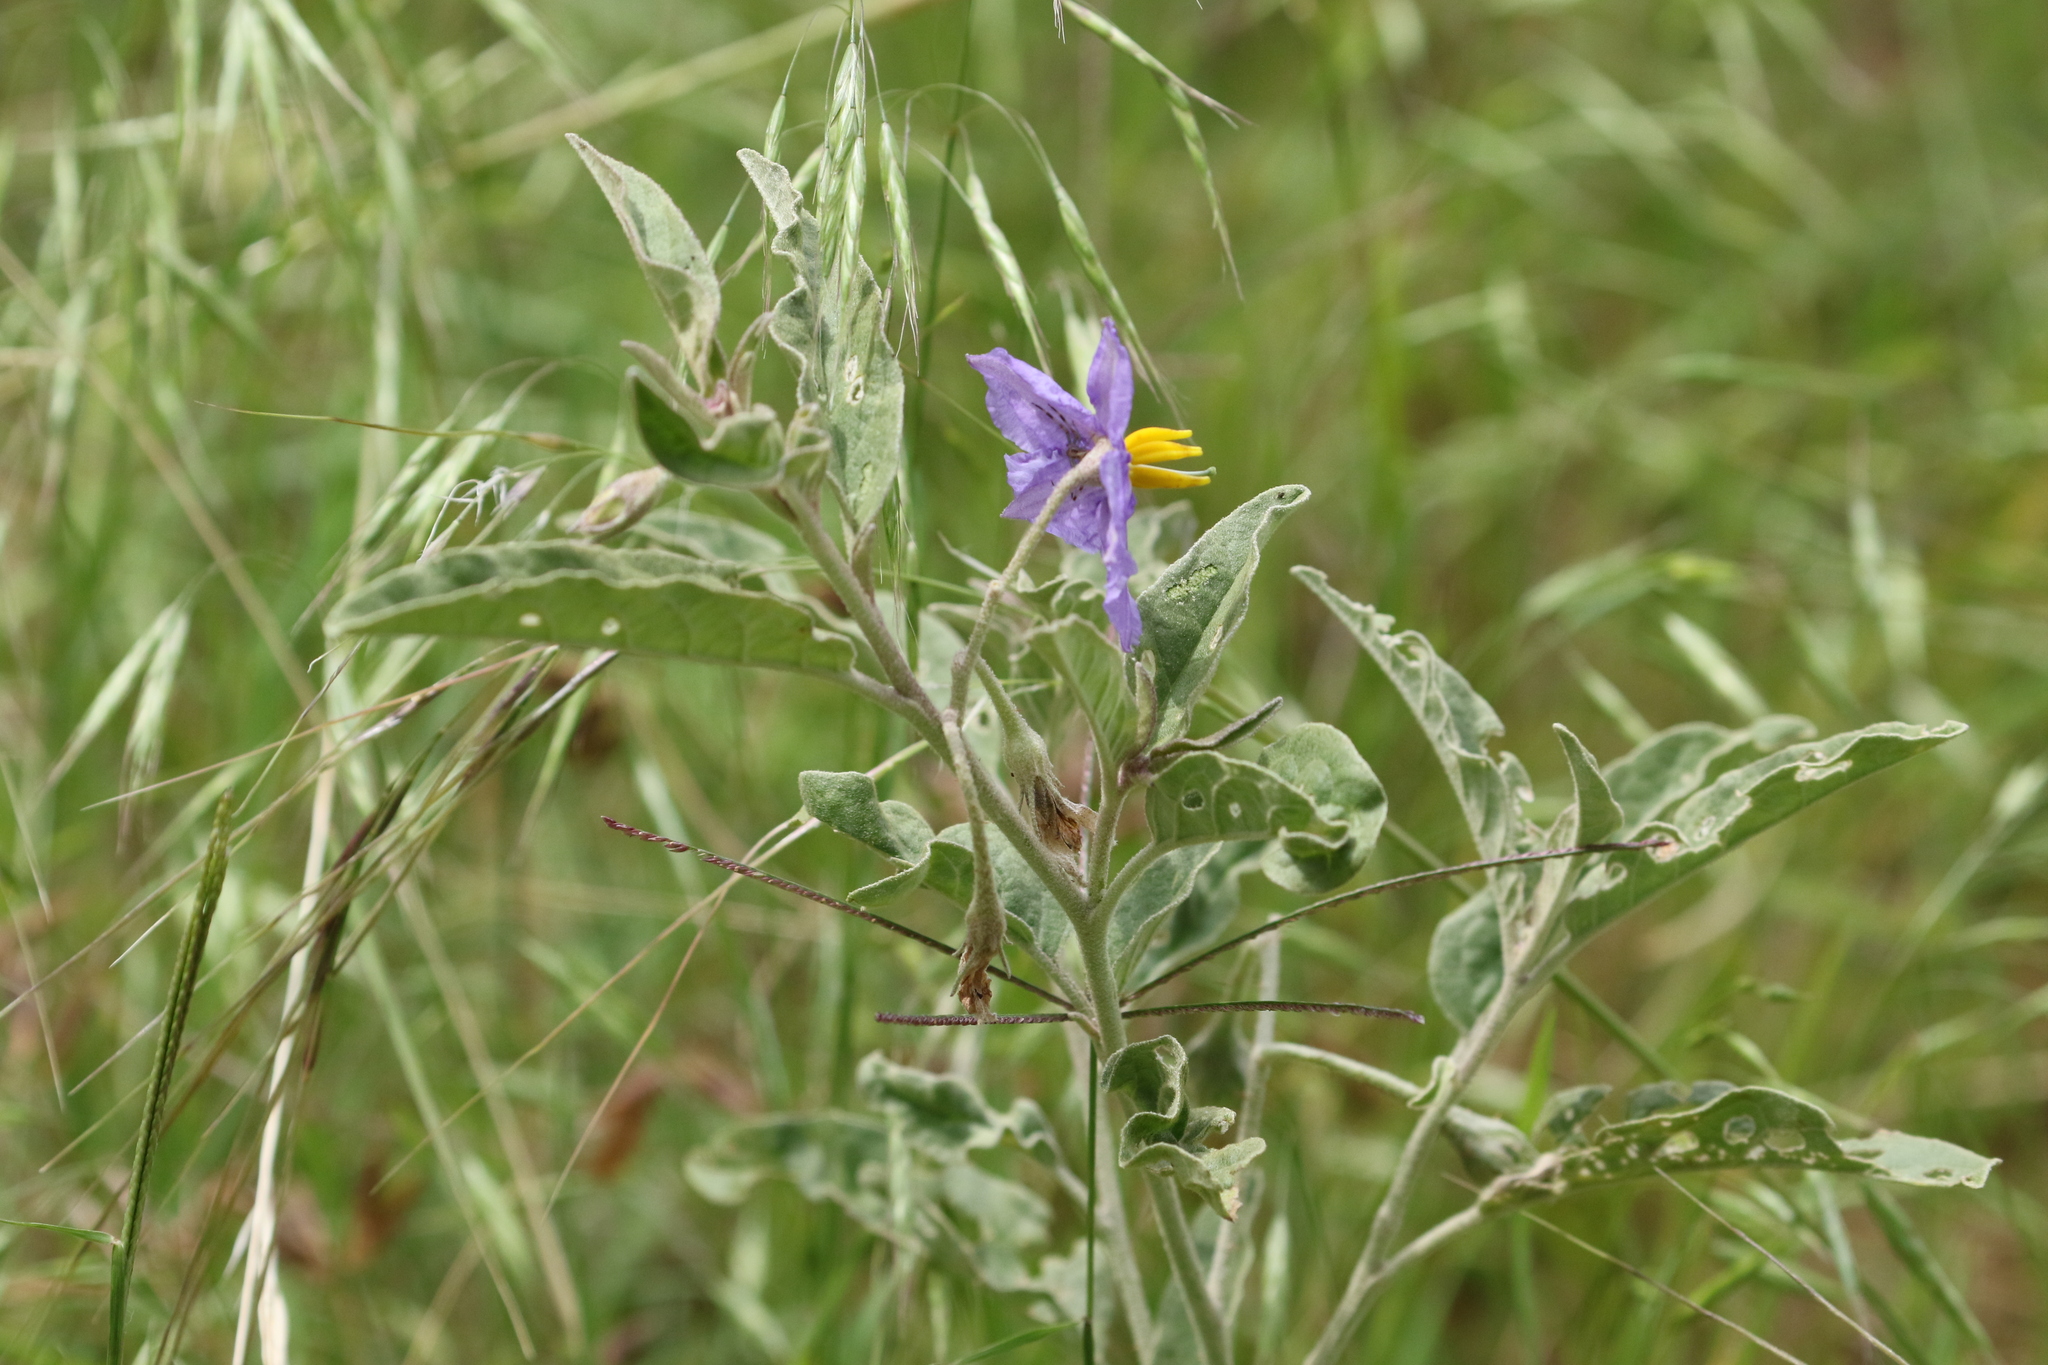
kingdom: Plantae
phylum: Tracheophyta
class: Magnoliopsida
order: Solanales
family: Solanaceae
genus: Solanum
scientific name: Solanum elaeagnifolium
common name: Silverleaf nightshade
